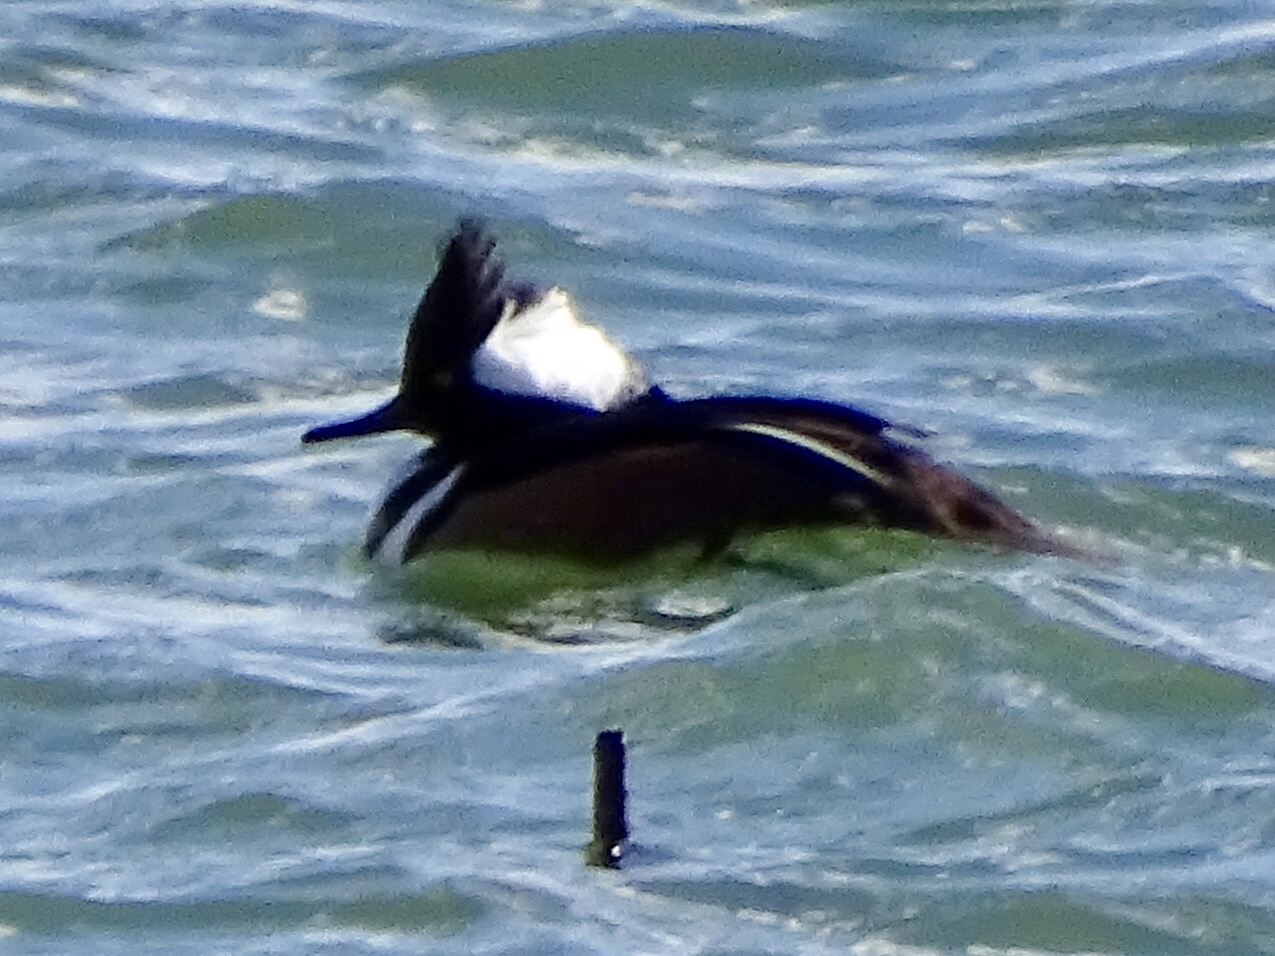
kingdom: Animalia
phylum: Chordata
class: Aves
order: Anseriformes
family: Anatidae
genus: Lophodytes
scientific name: Lophodytes cucullatus
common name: Hooded merganser
